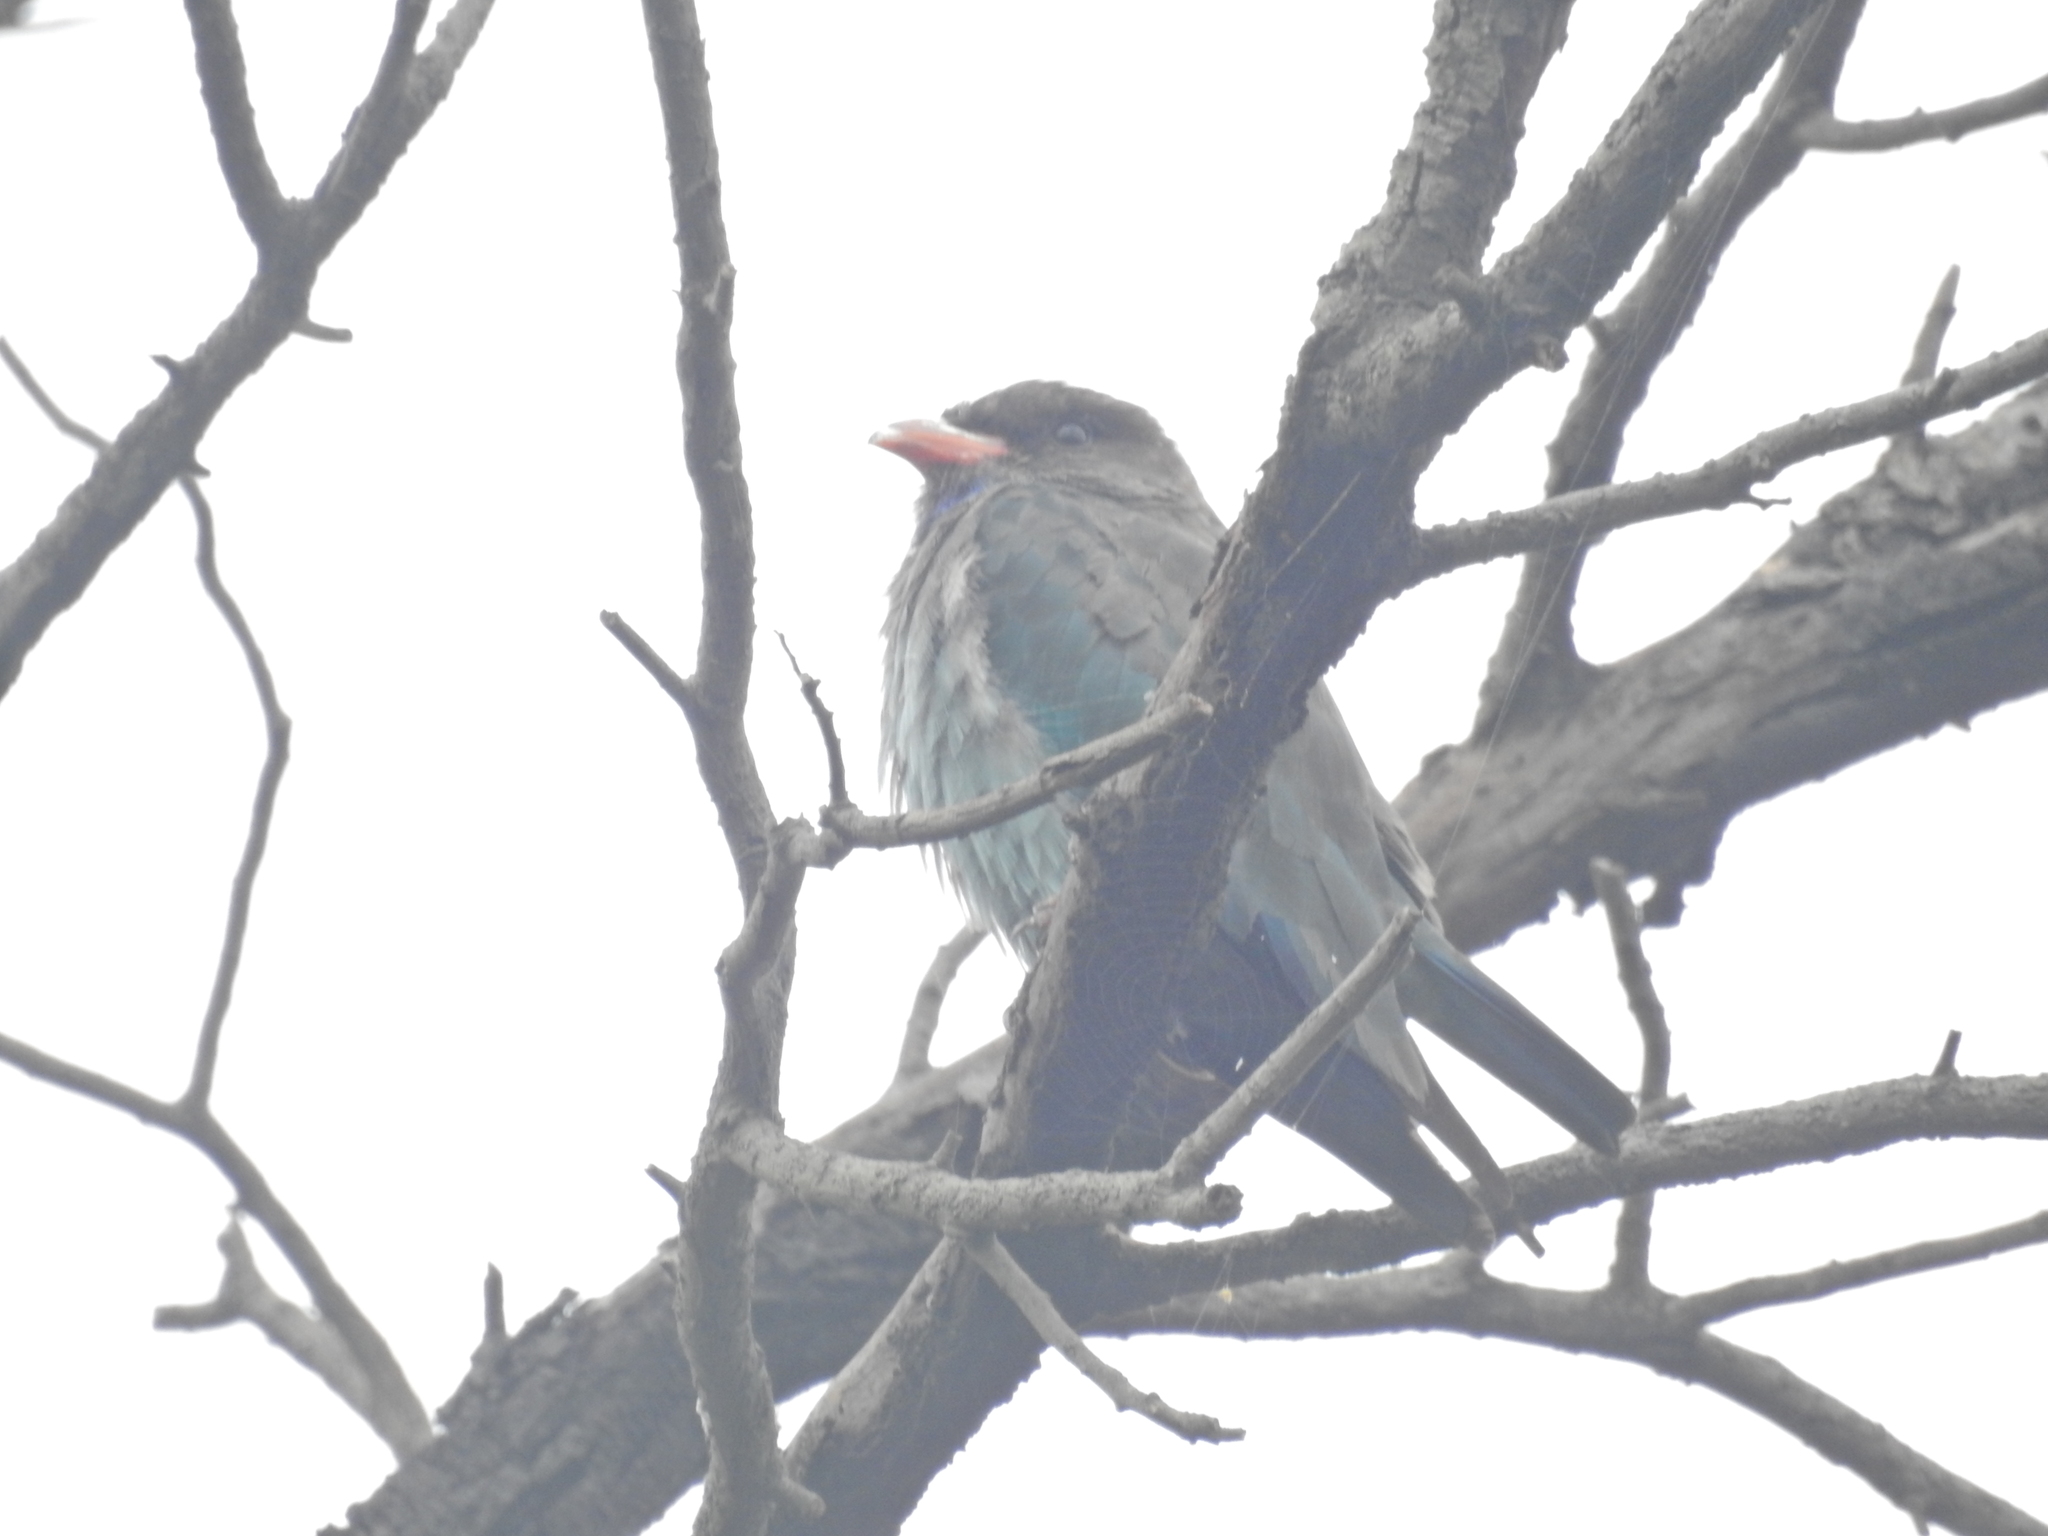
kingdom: Animalia
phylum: Chordata
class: Aves
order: Coraciiformes
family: Coraciidae
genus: Eurystomus
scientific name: Eurystomus orientalis
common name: Oriental dollarbird
